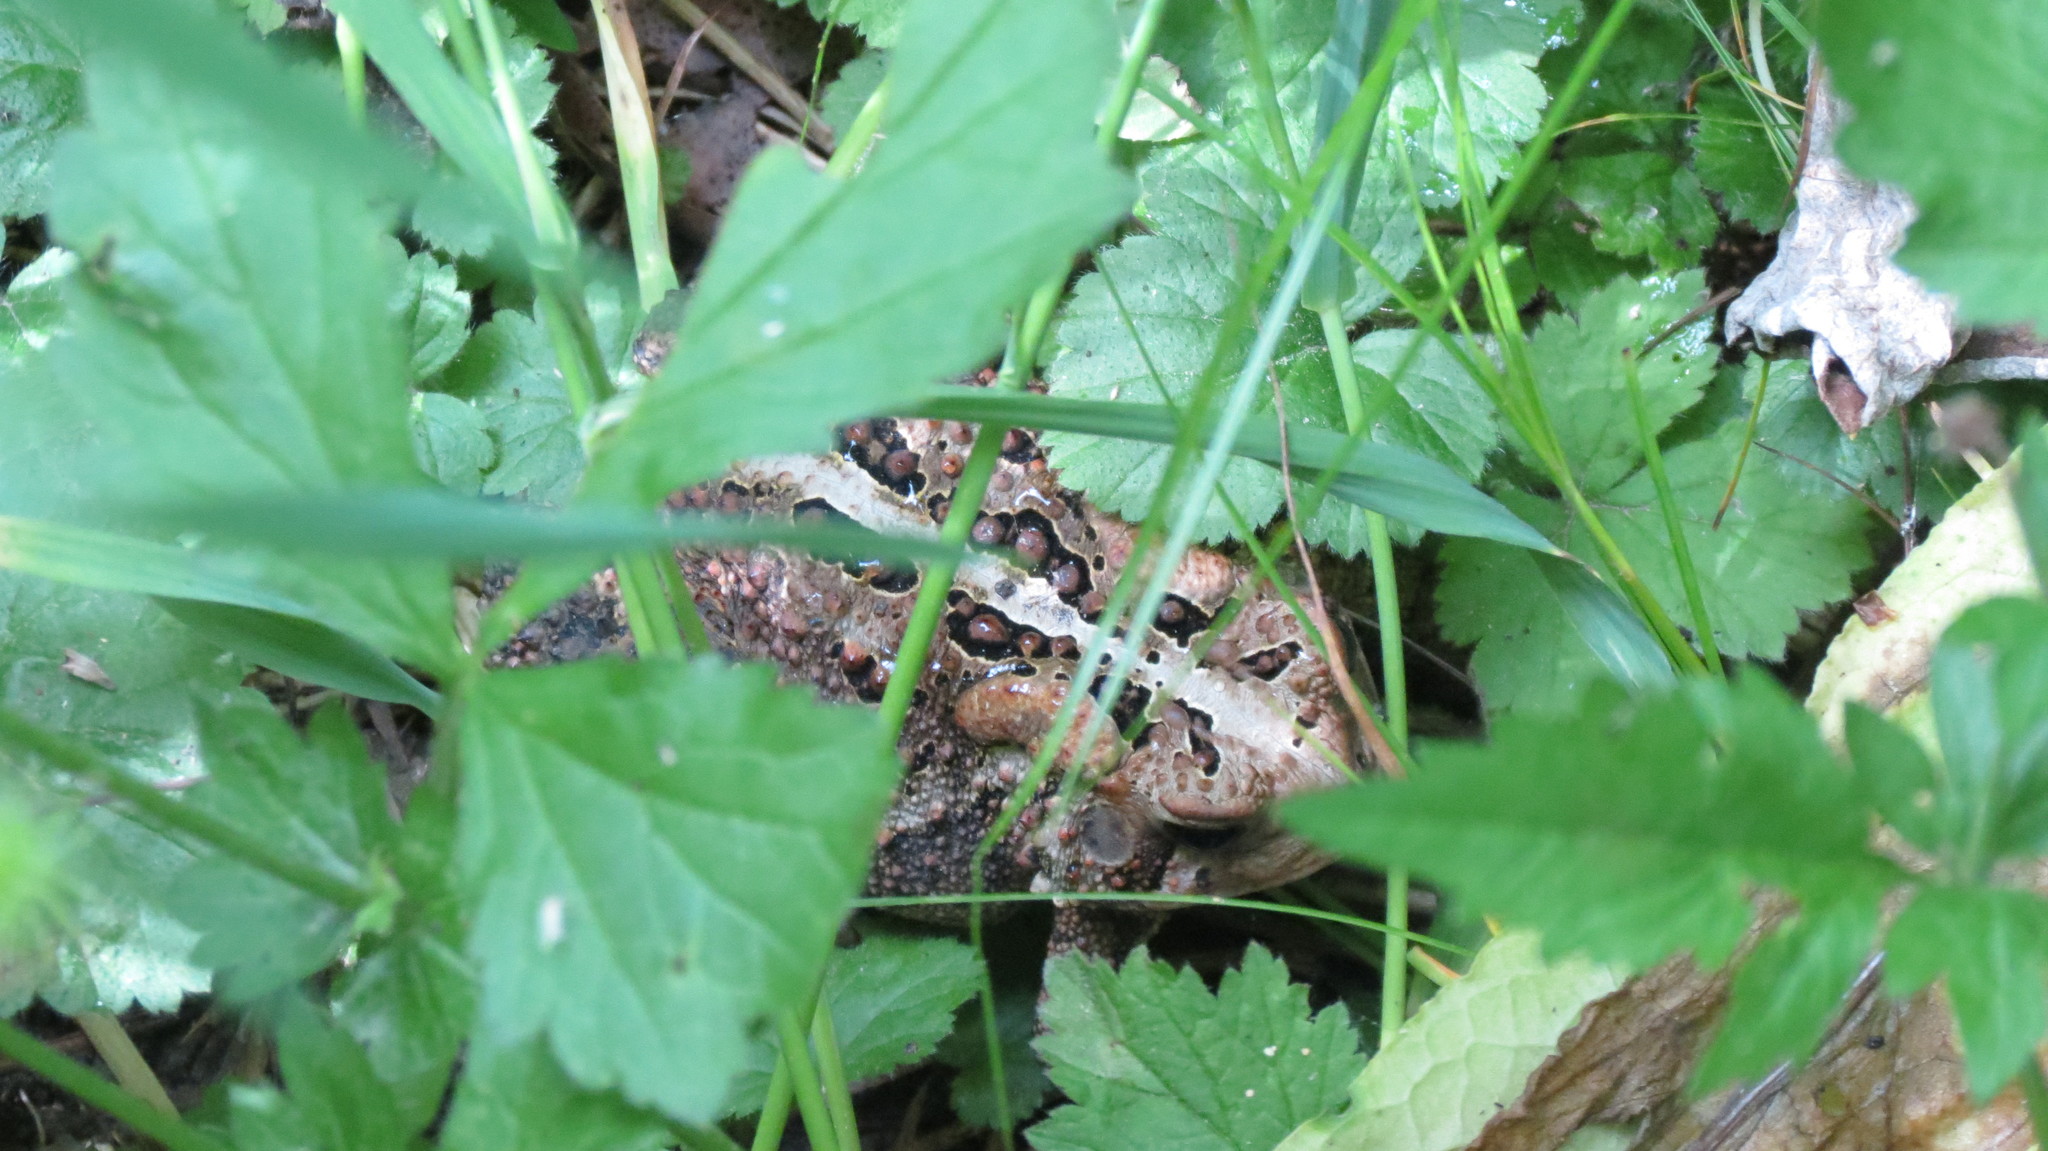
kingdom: Animalia
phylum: Chordata
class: Amphibia
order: Anura
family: Bufonidae
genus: Anaxyrus
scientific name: Anaxyrus americanus
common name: American toad
